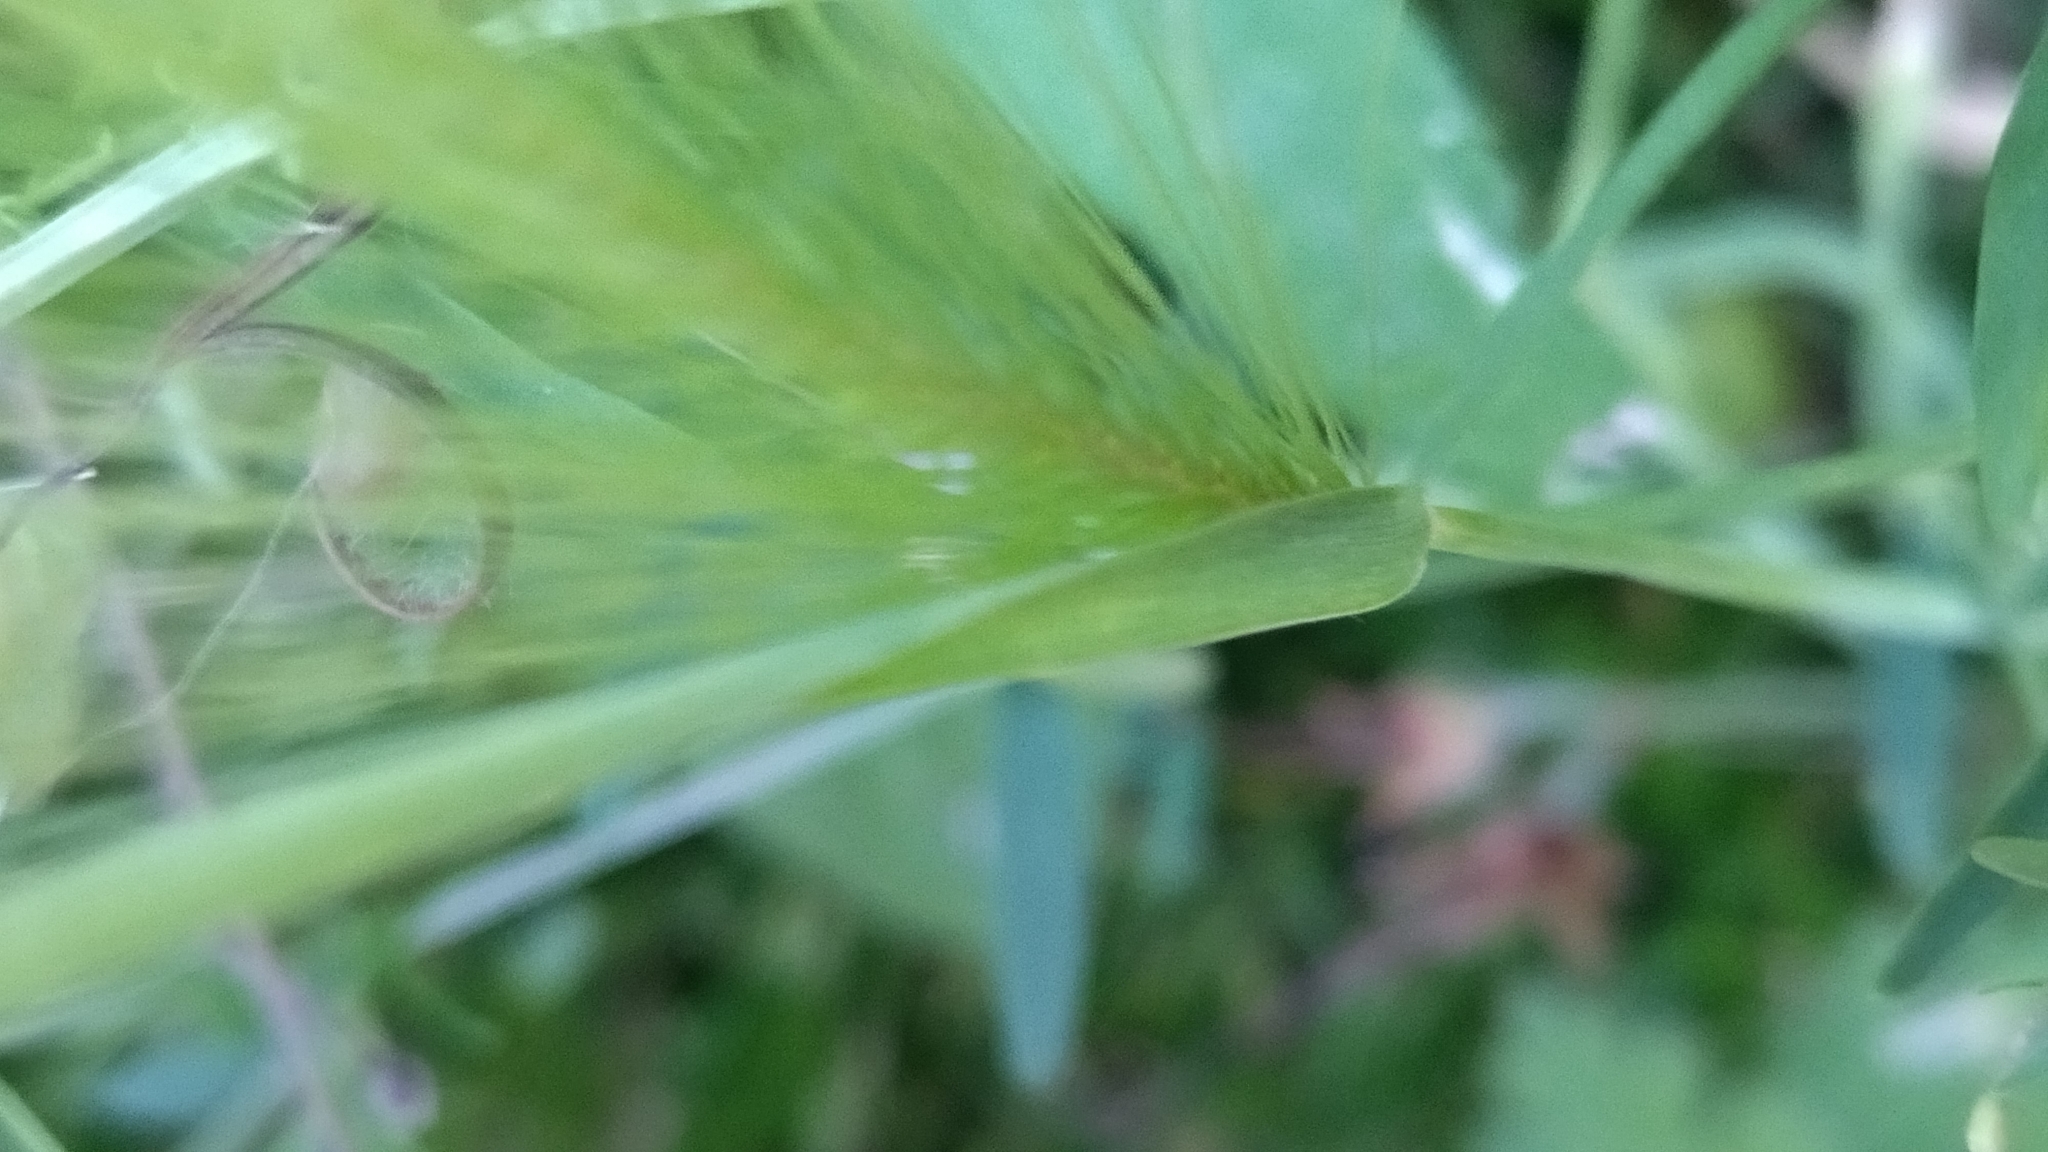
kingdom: Plantae
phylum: Tracheophyta
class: Liliopsida
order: Poales
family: Poaceae
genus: Hordeum
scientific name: Hordeum jubatum
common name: Foxtail barley
